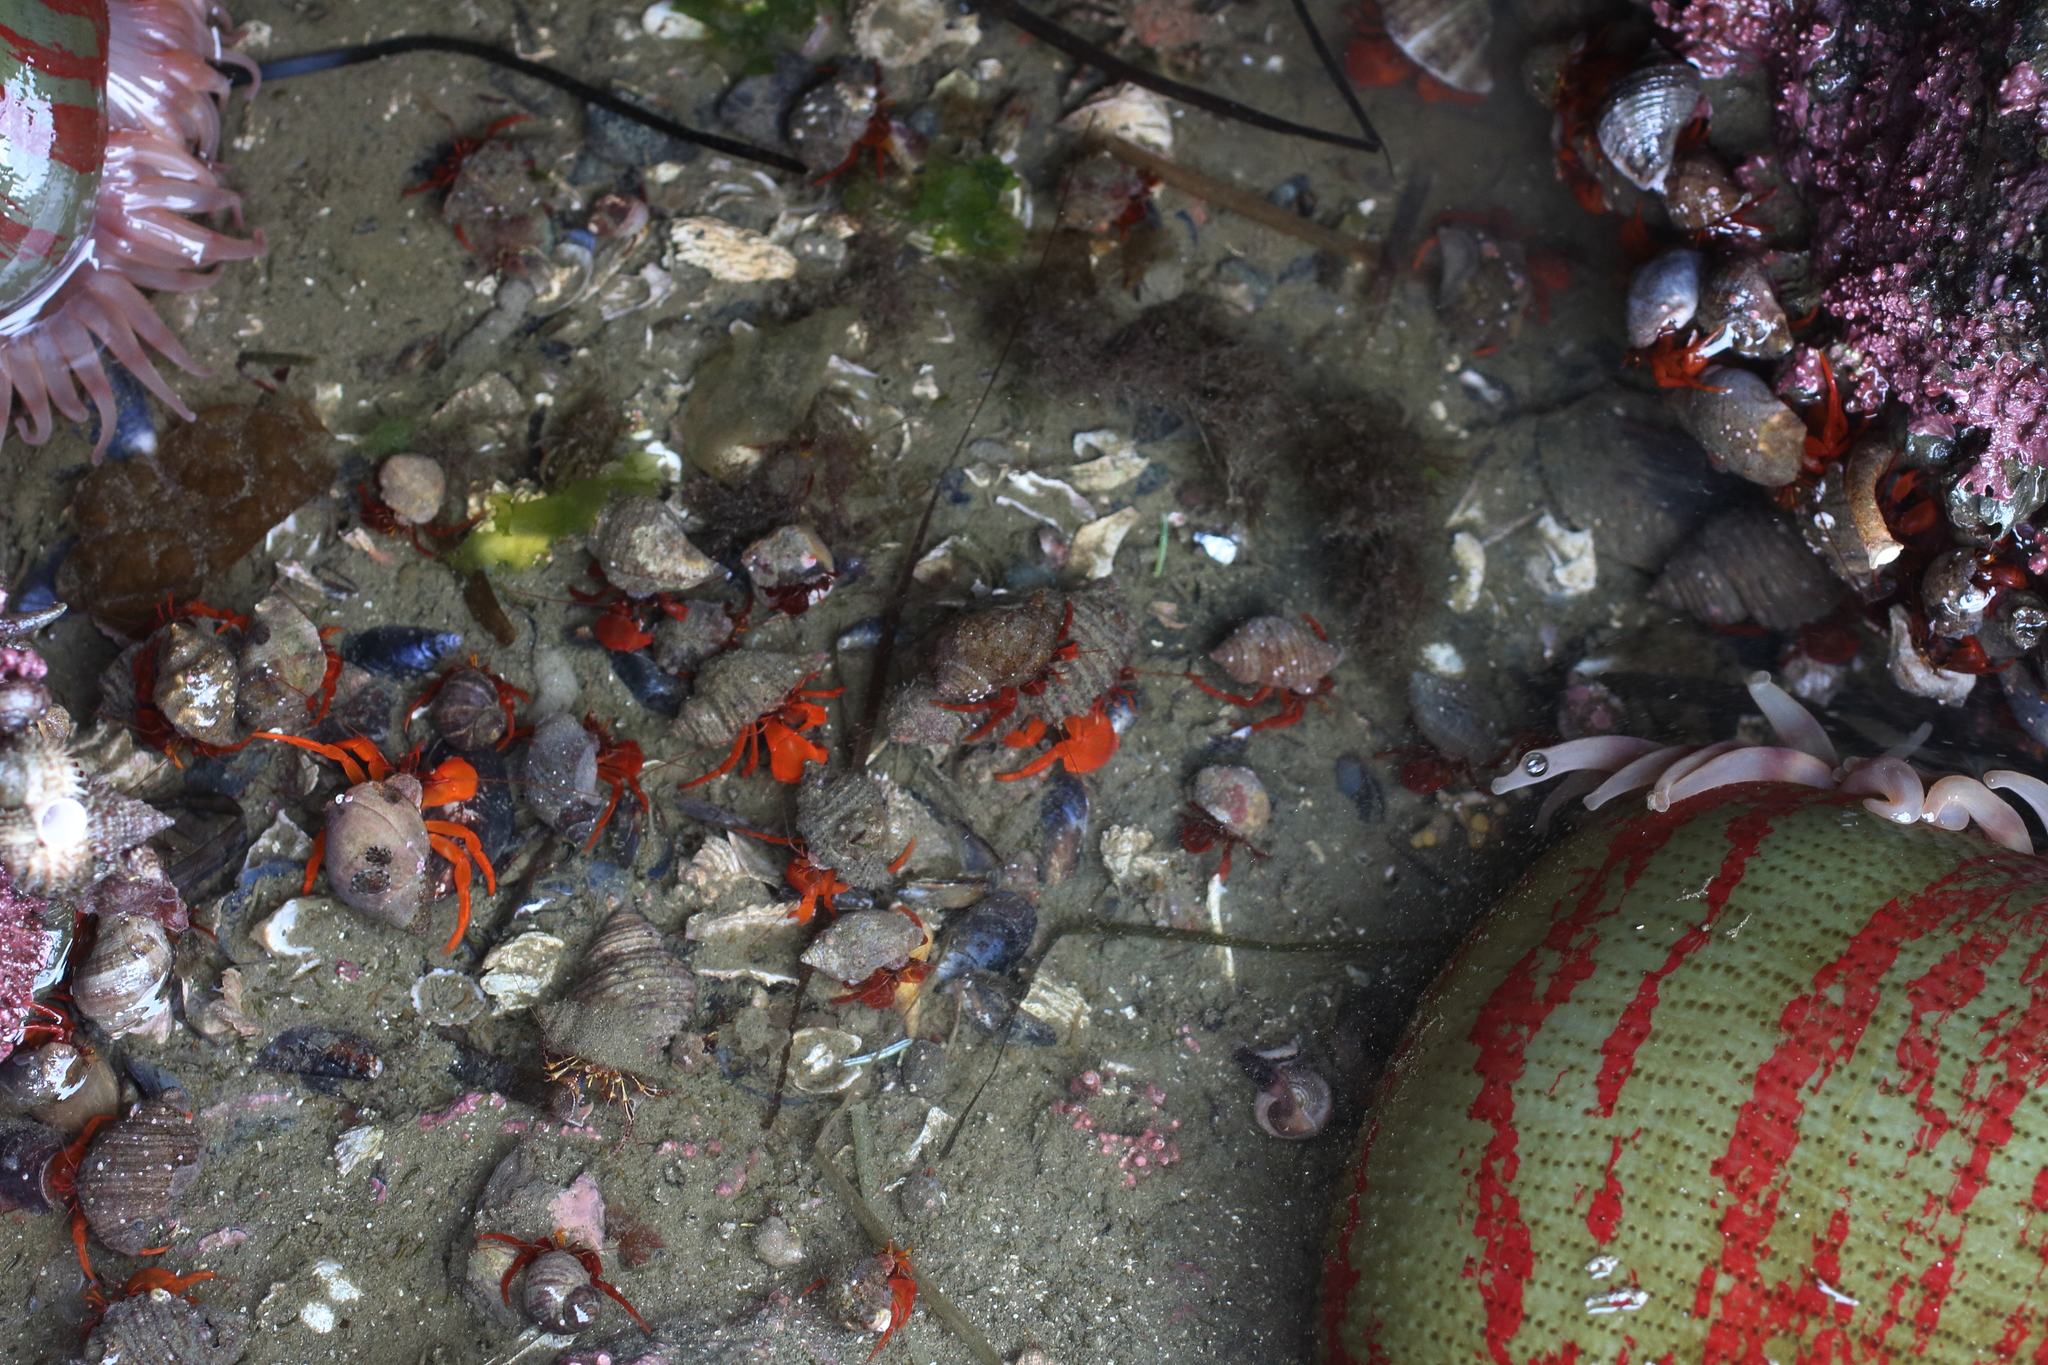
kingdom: Animalia
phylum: Arthropoda
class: Malacostraca
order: Decapoda
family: Paguridae
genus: Elassochirus
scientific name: Elassochirus gilli
